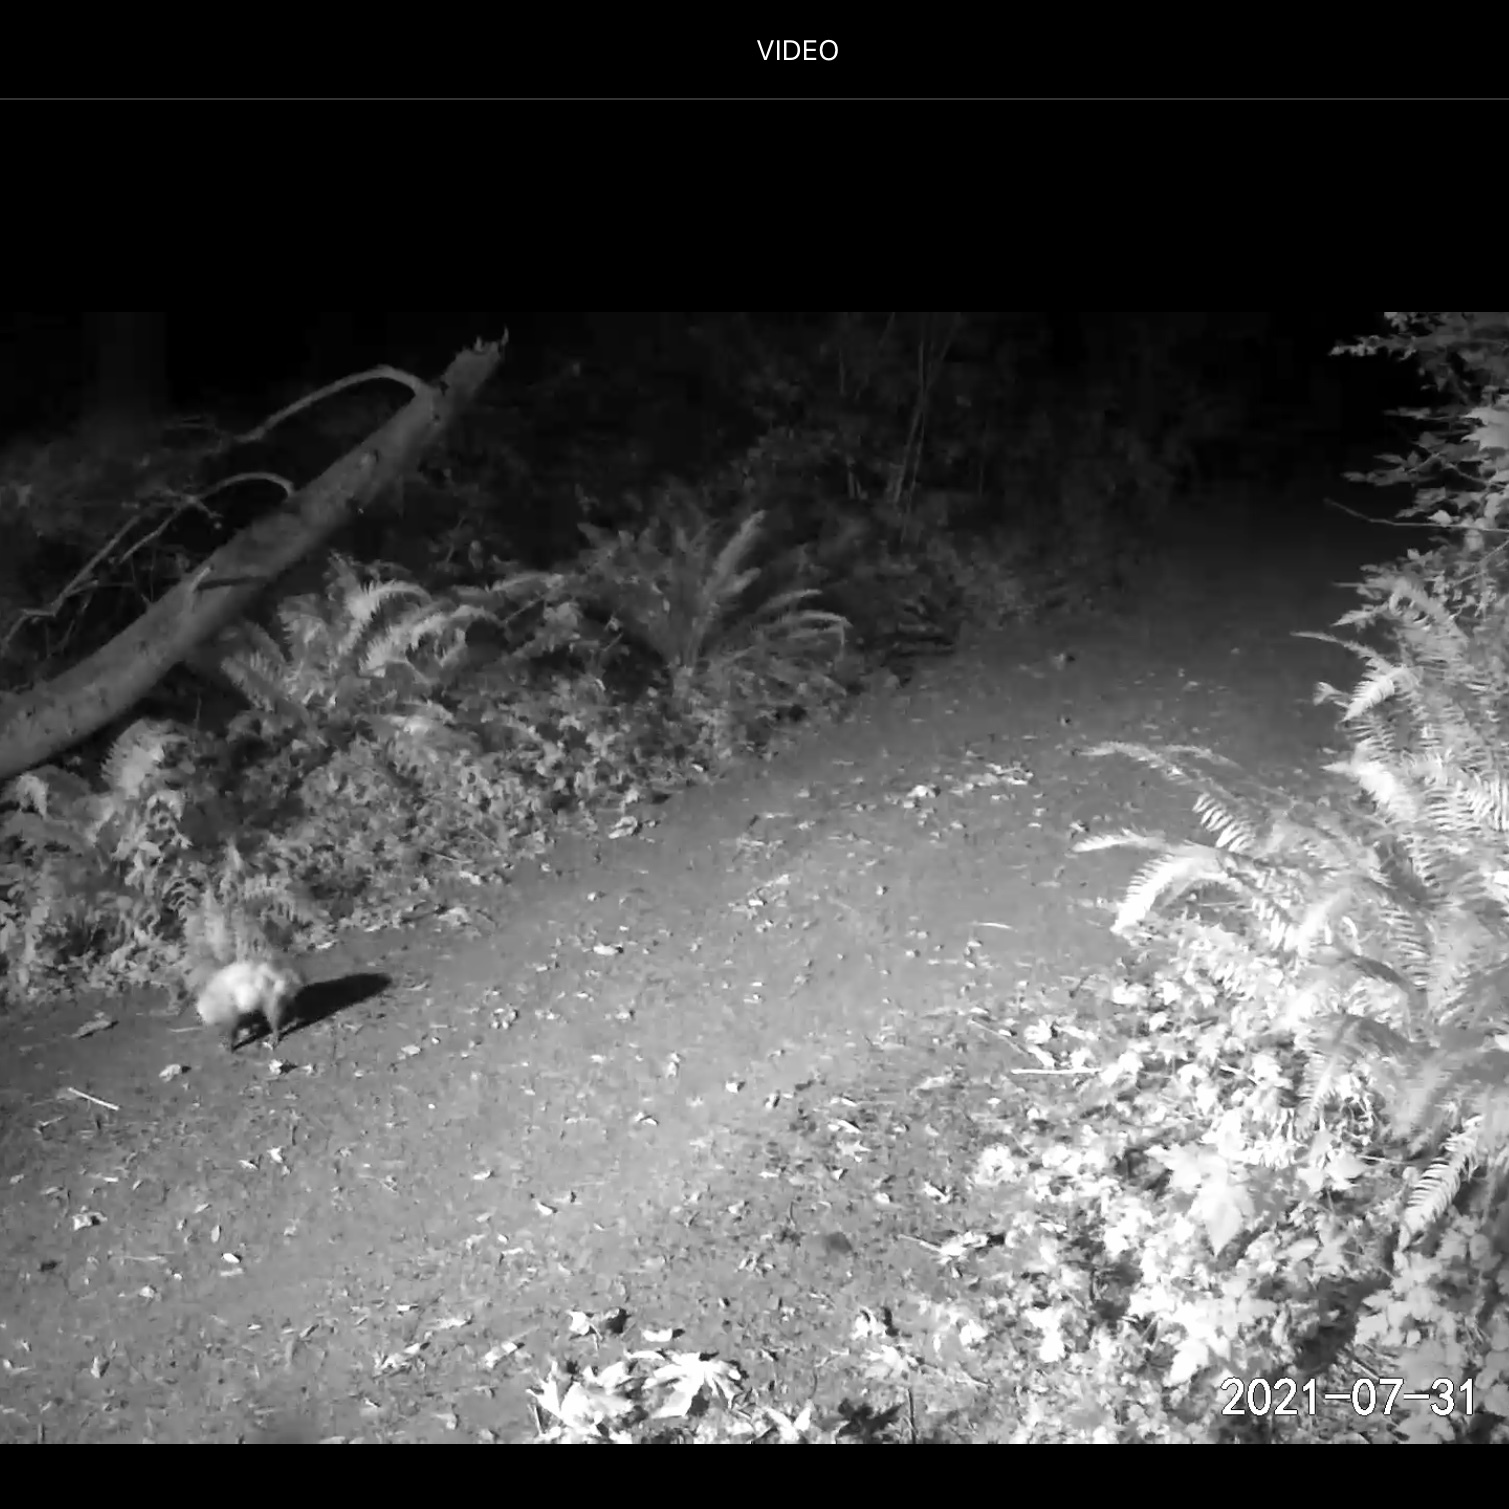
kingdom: Animalia
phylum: Chordata
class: Mammalia
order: Didelphimorphia
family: Didelphidae
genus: Didelphis
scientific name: Didelphis virginiana
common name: Virginia opossum
